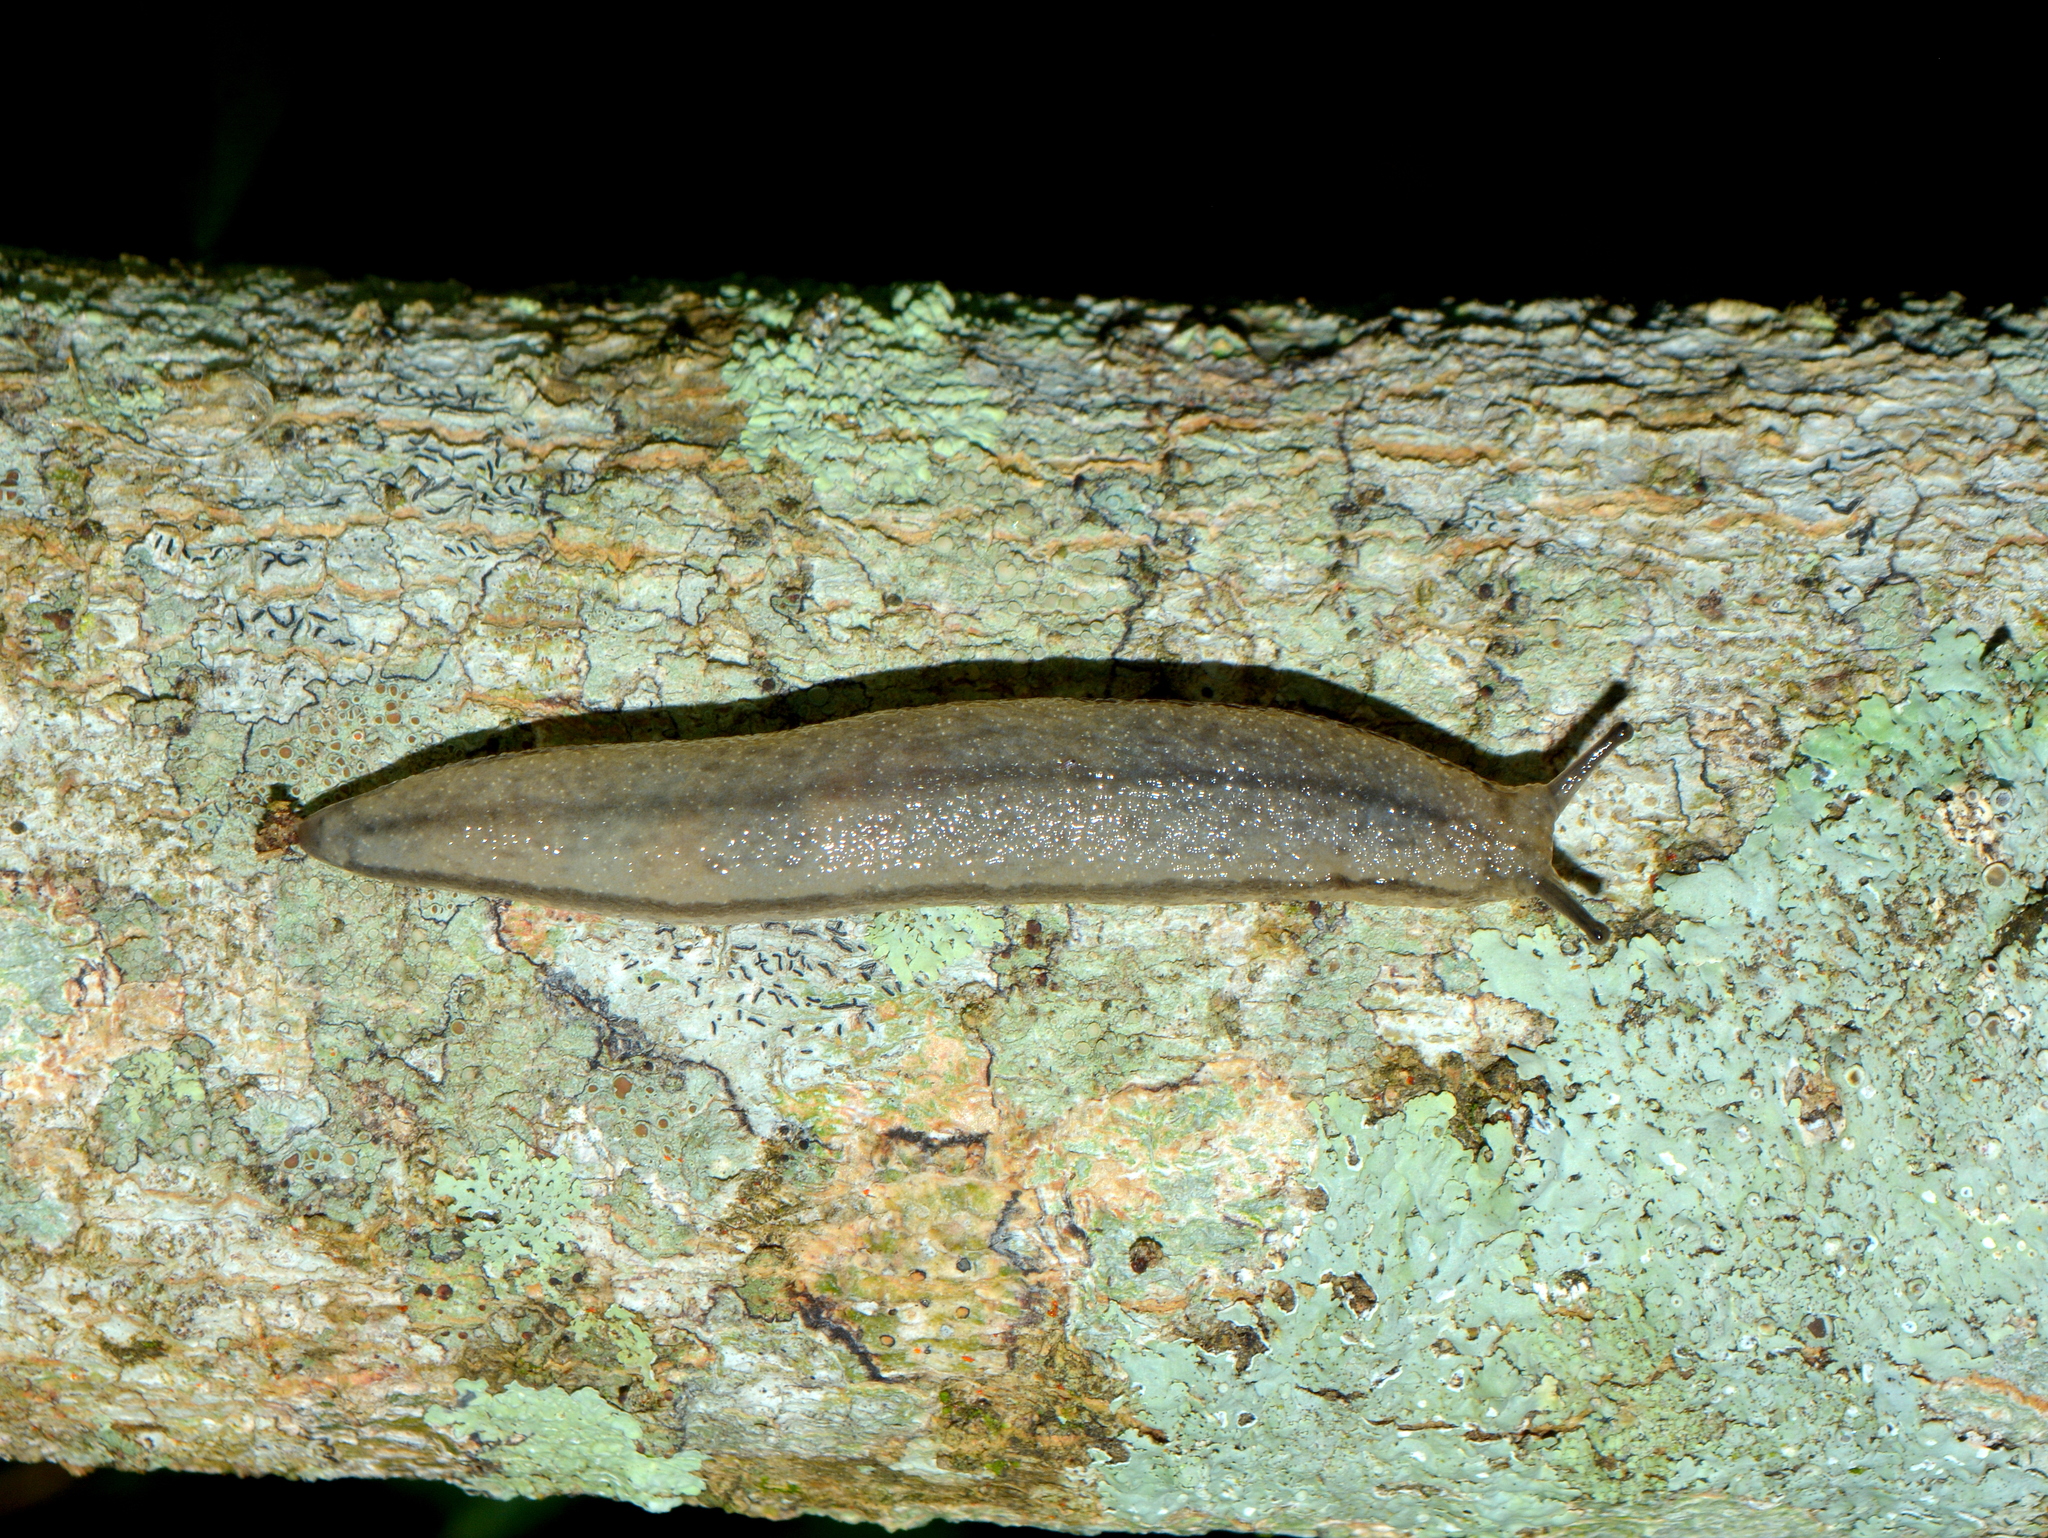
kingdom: Animalia
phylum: Mollusca
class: Gastropoda
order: Stylommatophora
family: Philomycidae
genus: Meghimatium
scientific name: Meghimatium pictum
